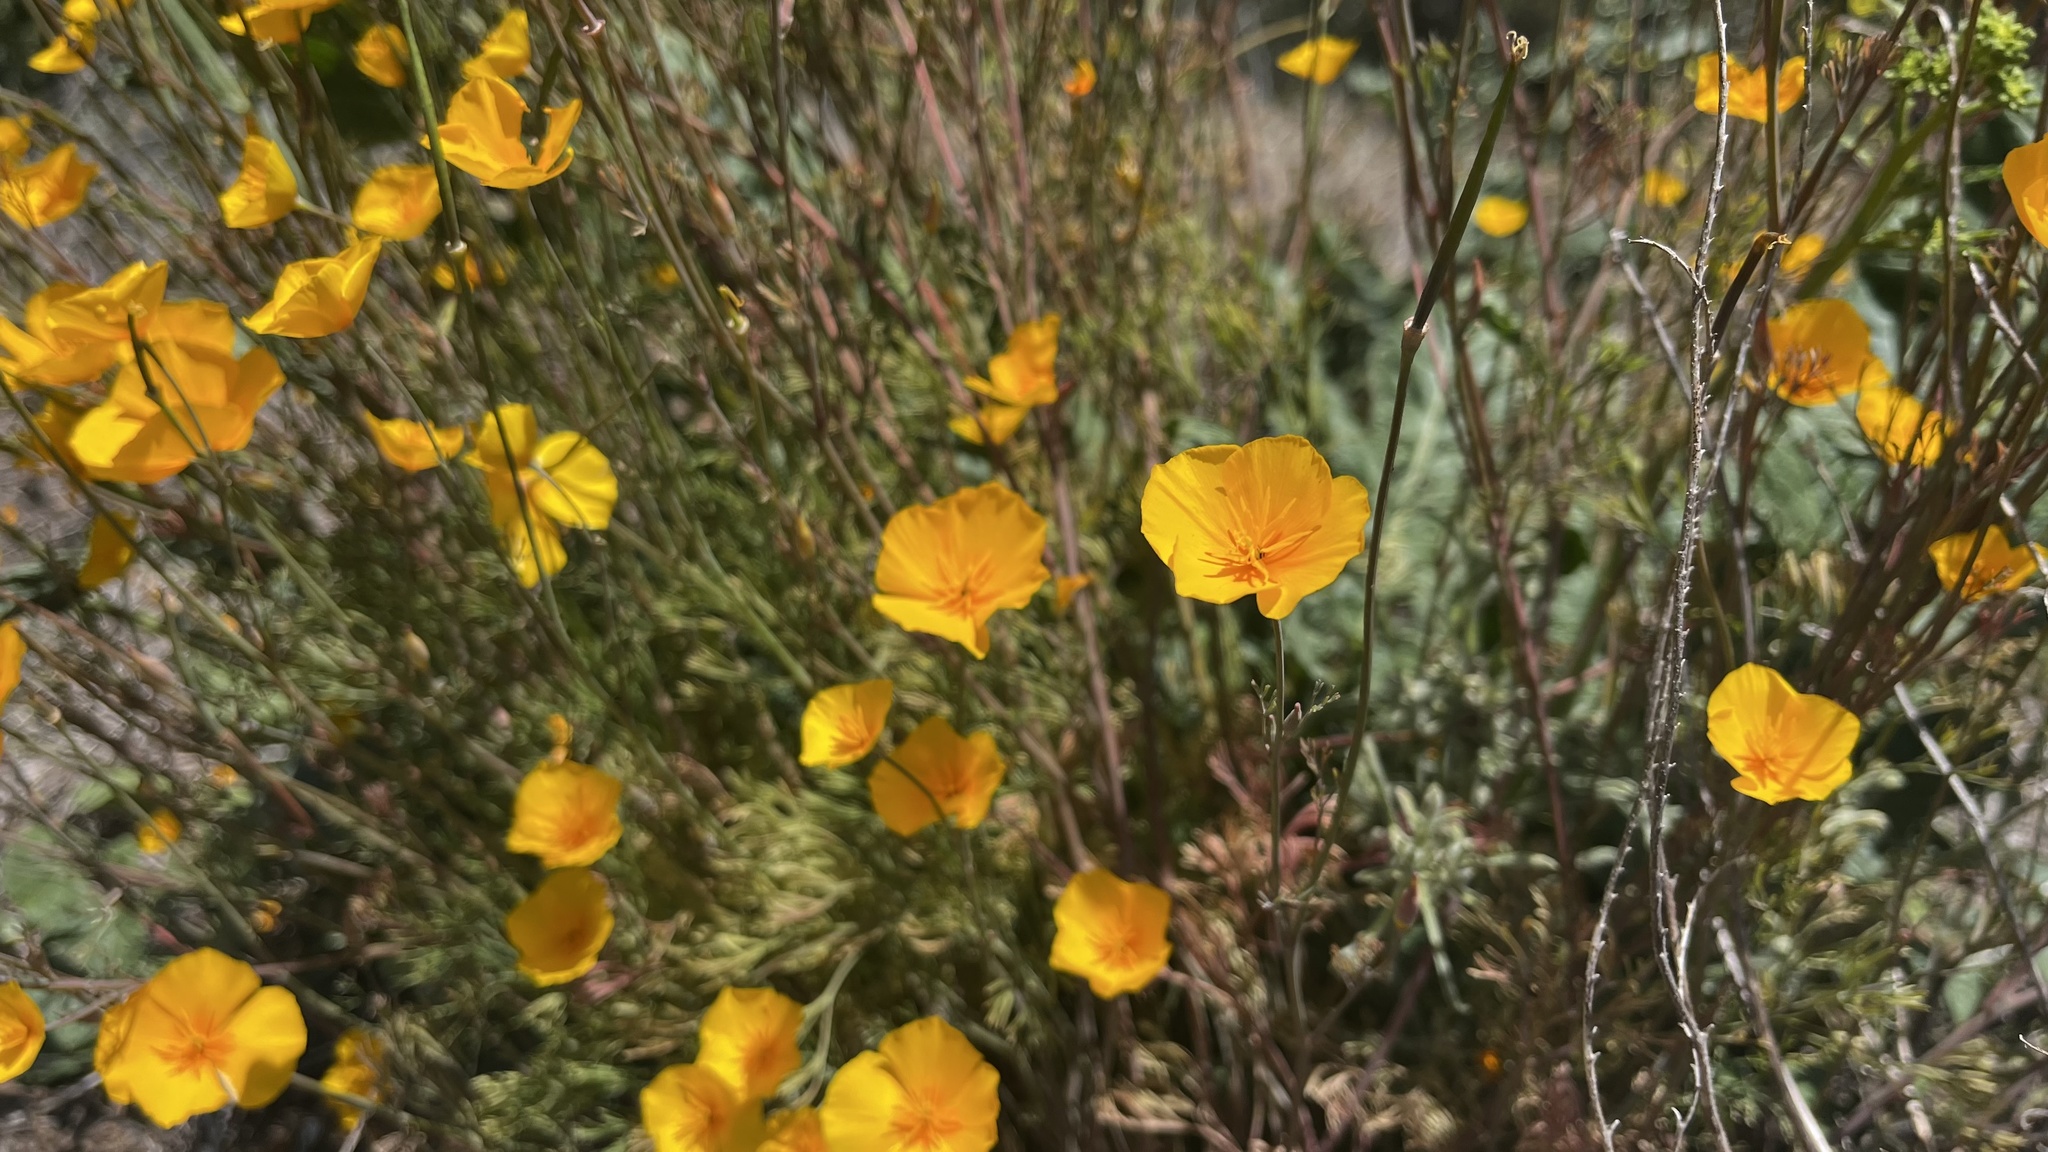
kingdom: Plantae
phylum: Tracheophyta
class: Magnoliopsida
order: Ranunculales
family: Papaveraceae
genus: Eschscholzia
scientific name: Eschscholzia californica
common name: California poppy
